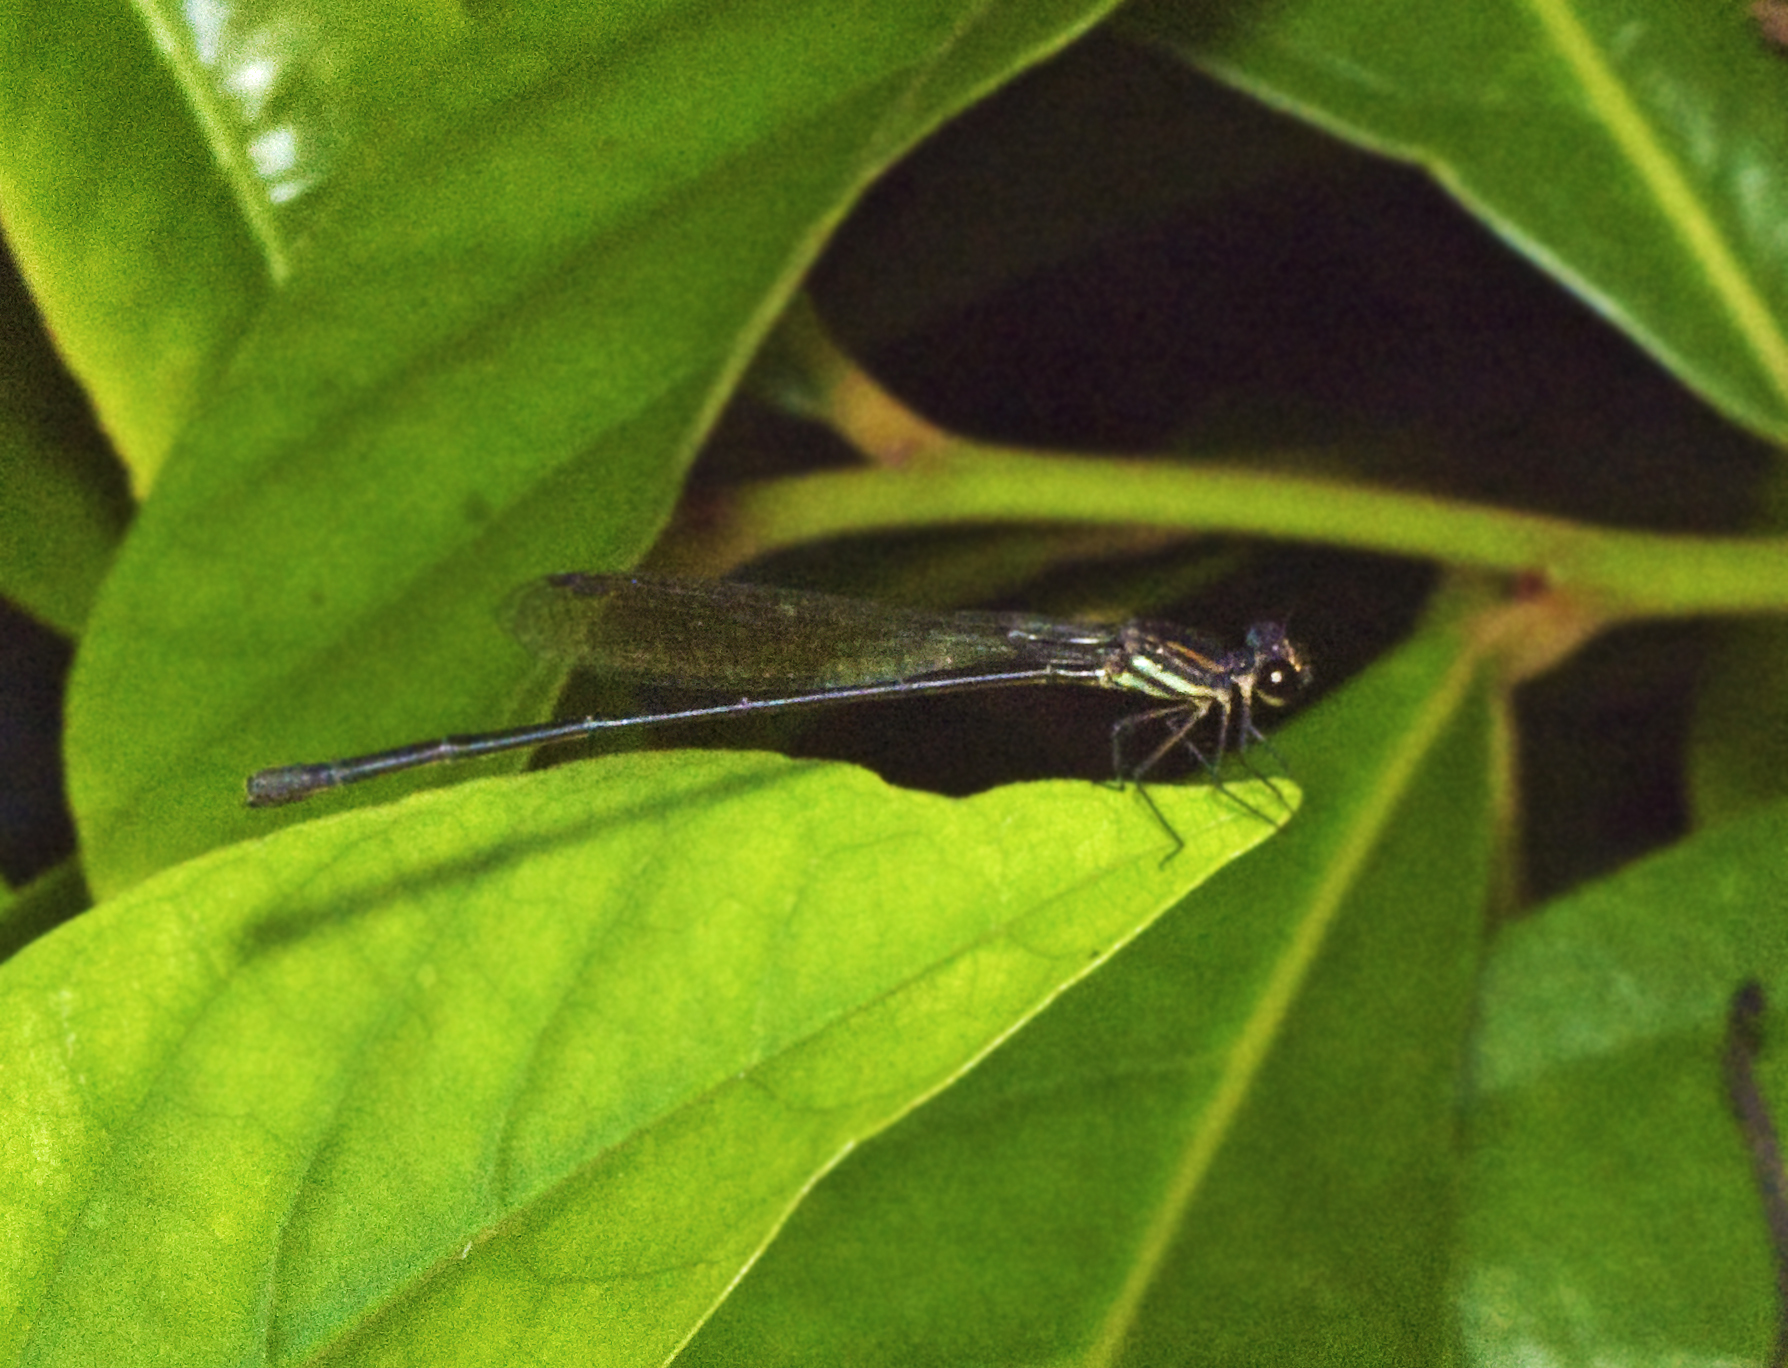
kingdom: Animalia
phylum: Arthropoda
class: Insecta
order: Odonata
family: Platycnemididae
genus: Nososticta
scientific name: Nososticta coelestina
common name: Green-blue threadtail
